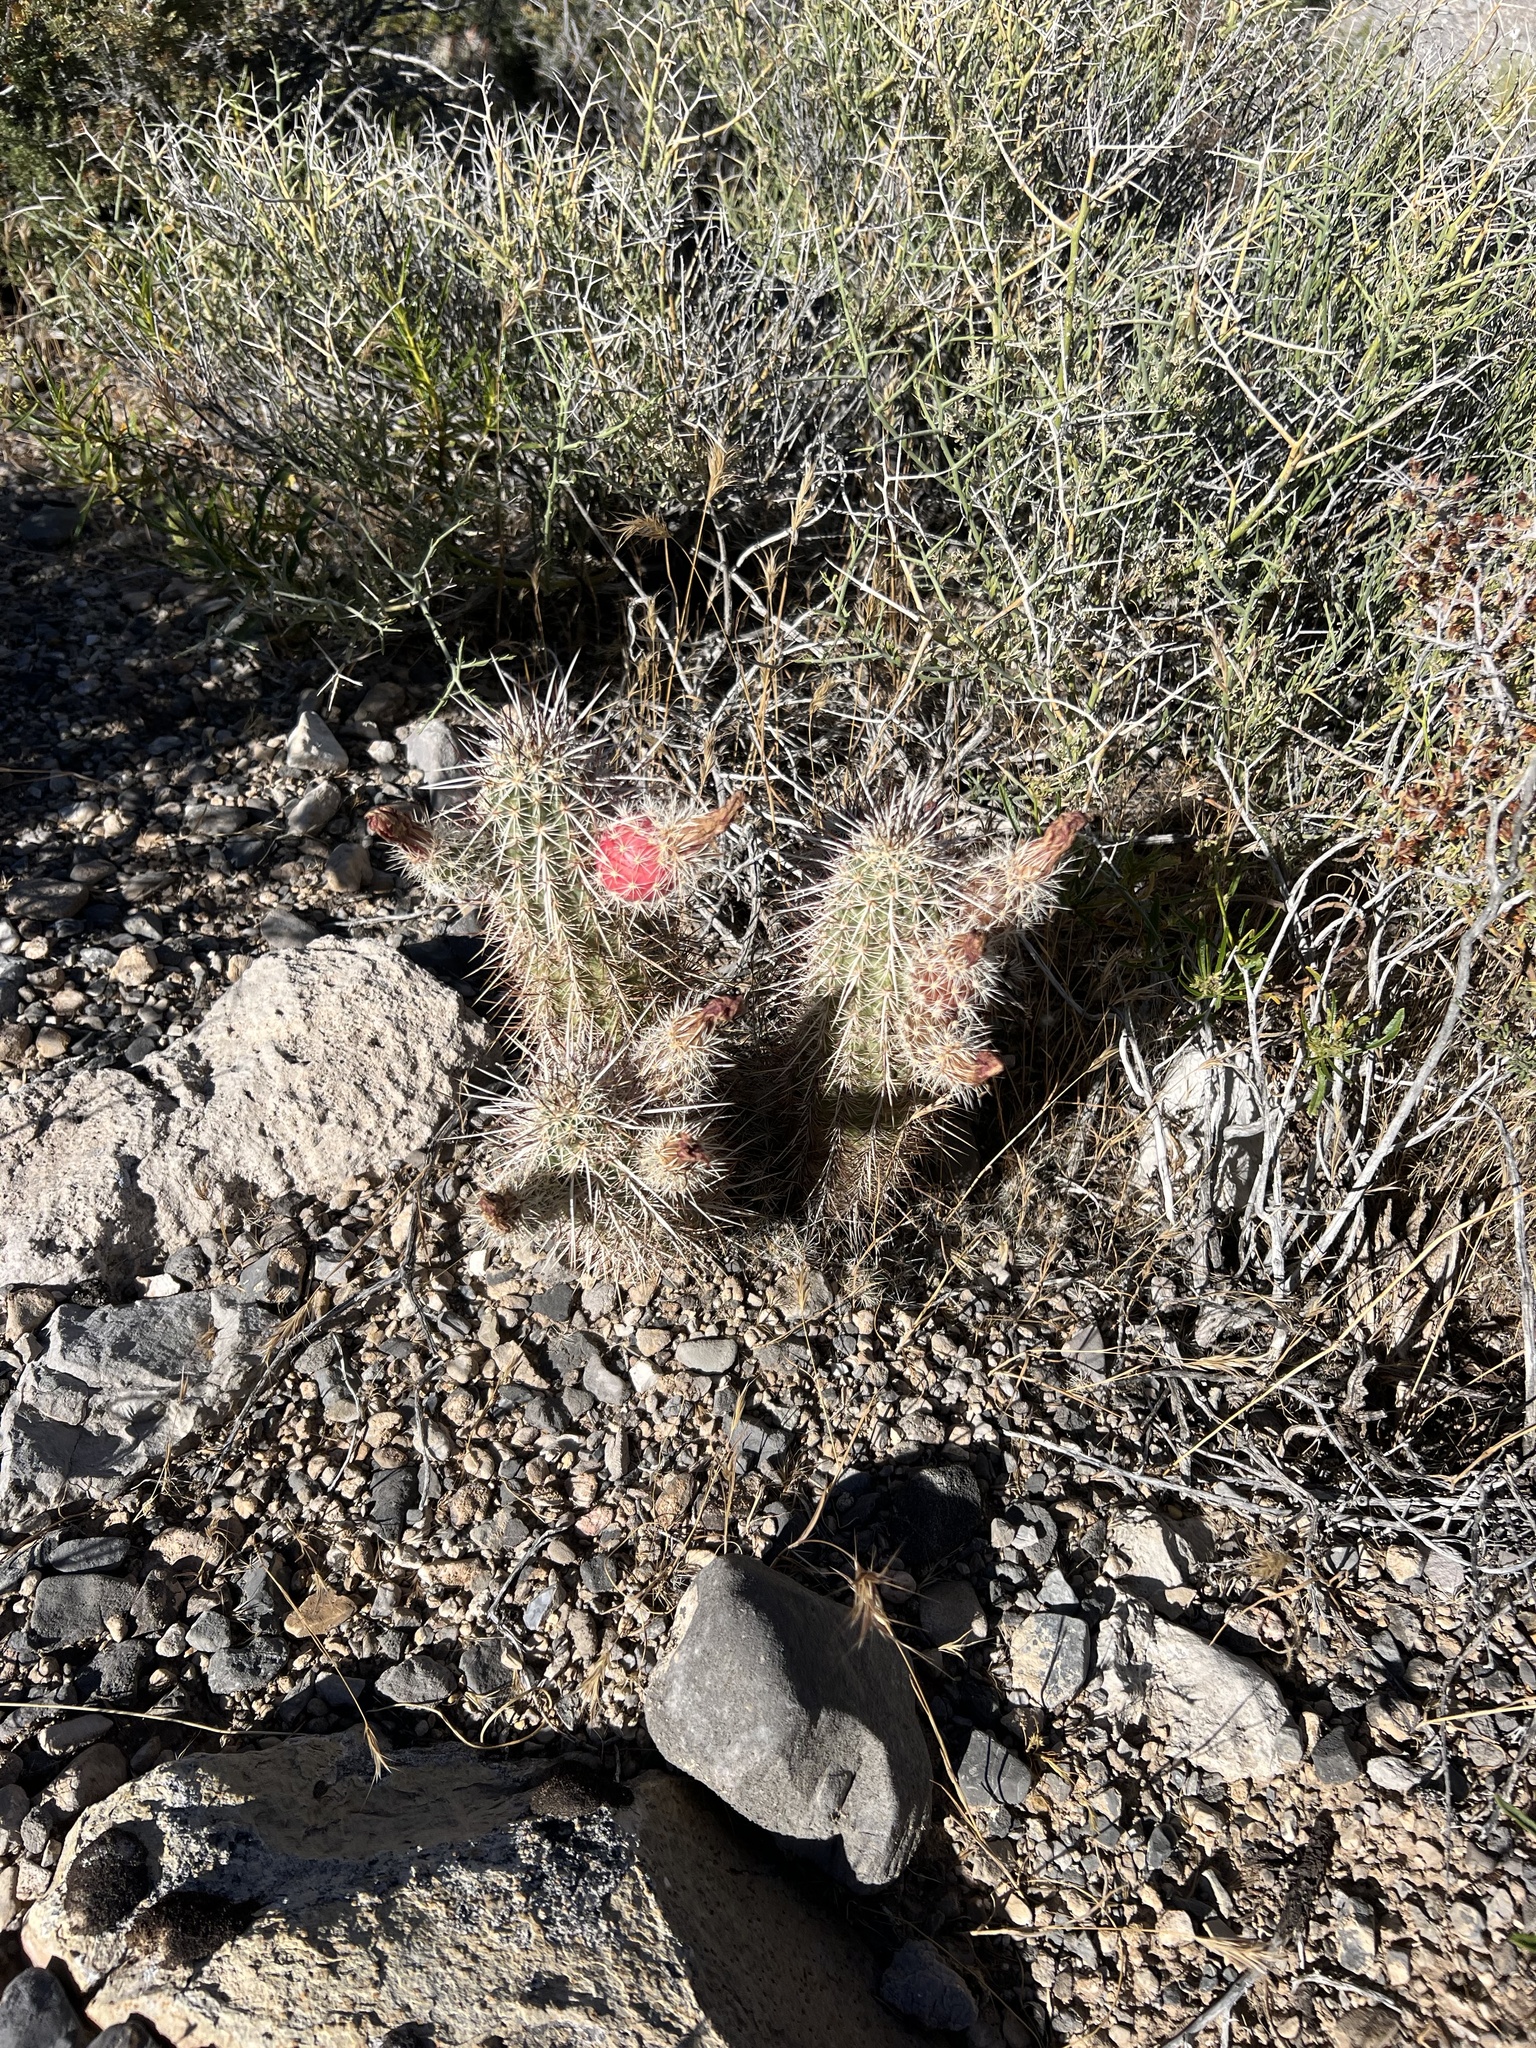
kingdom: Plantae
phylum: Tracheophyta
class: Magnoliopsida
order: Caryophyllales
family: Cactaceae
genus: Echinocereus
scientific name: Echinocereus engelmannii
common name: Engelmann's hedgehog cactus
